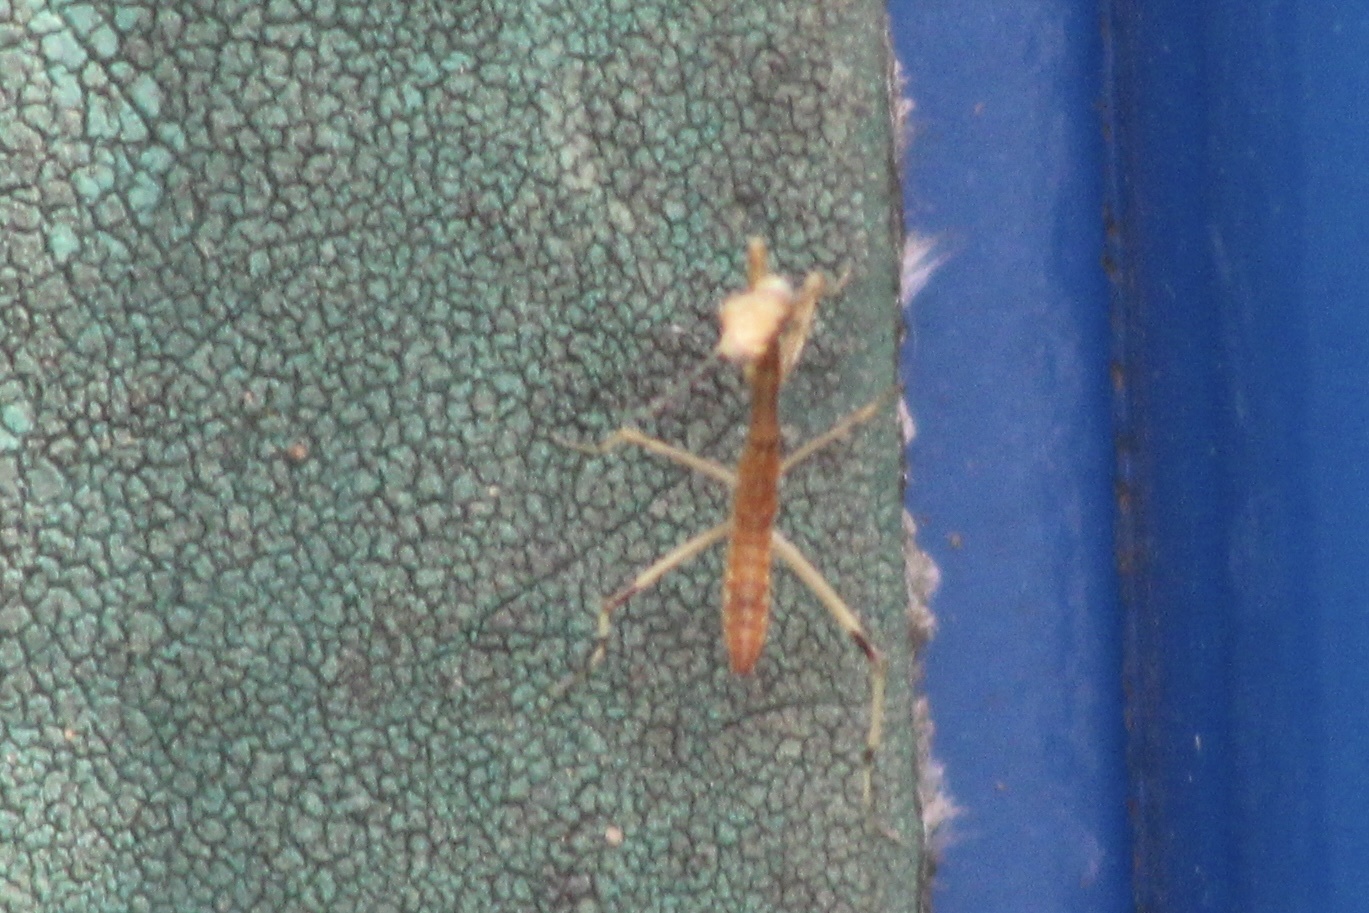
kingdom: Animalia
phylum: Arthropoda
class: Insecta
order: Mantodea
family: Mantidae
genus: Stagmomantis
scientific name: Stagmomantis carolina
